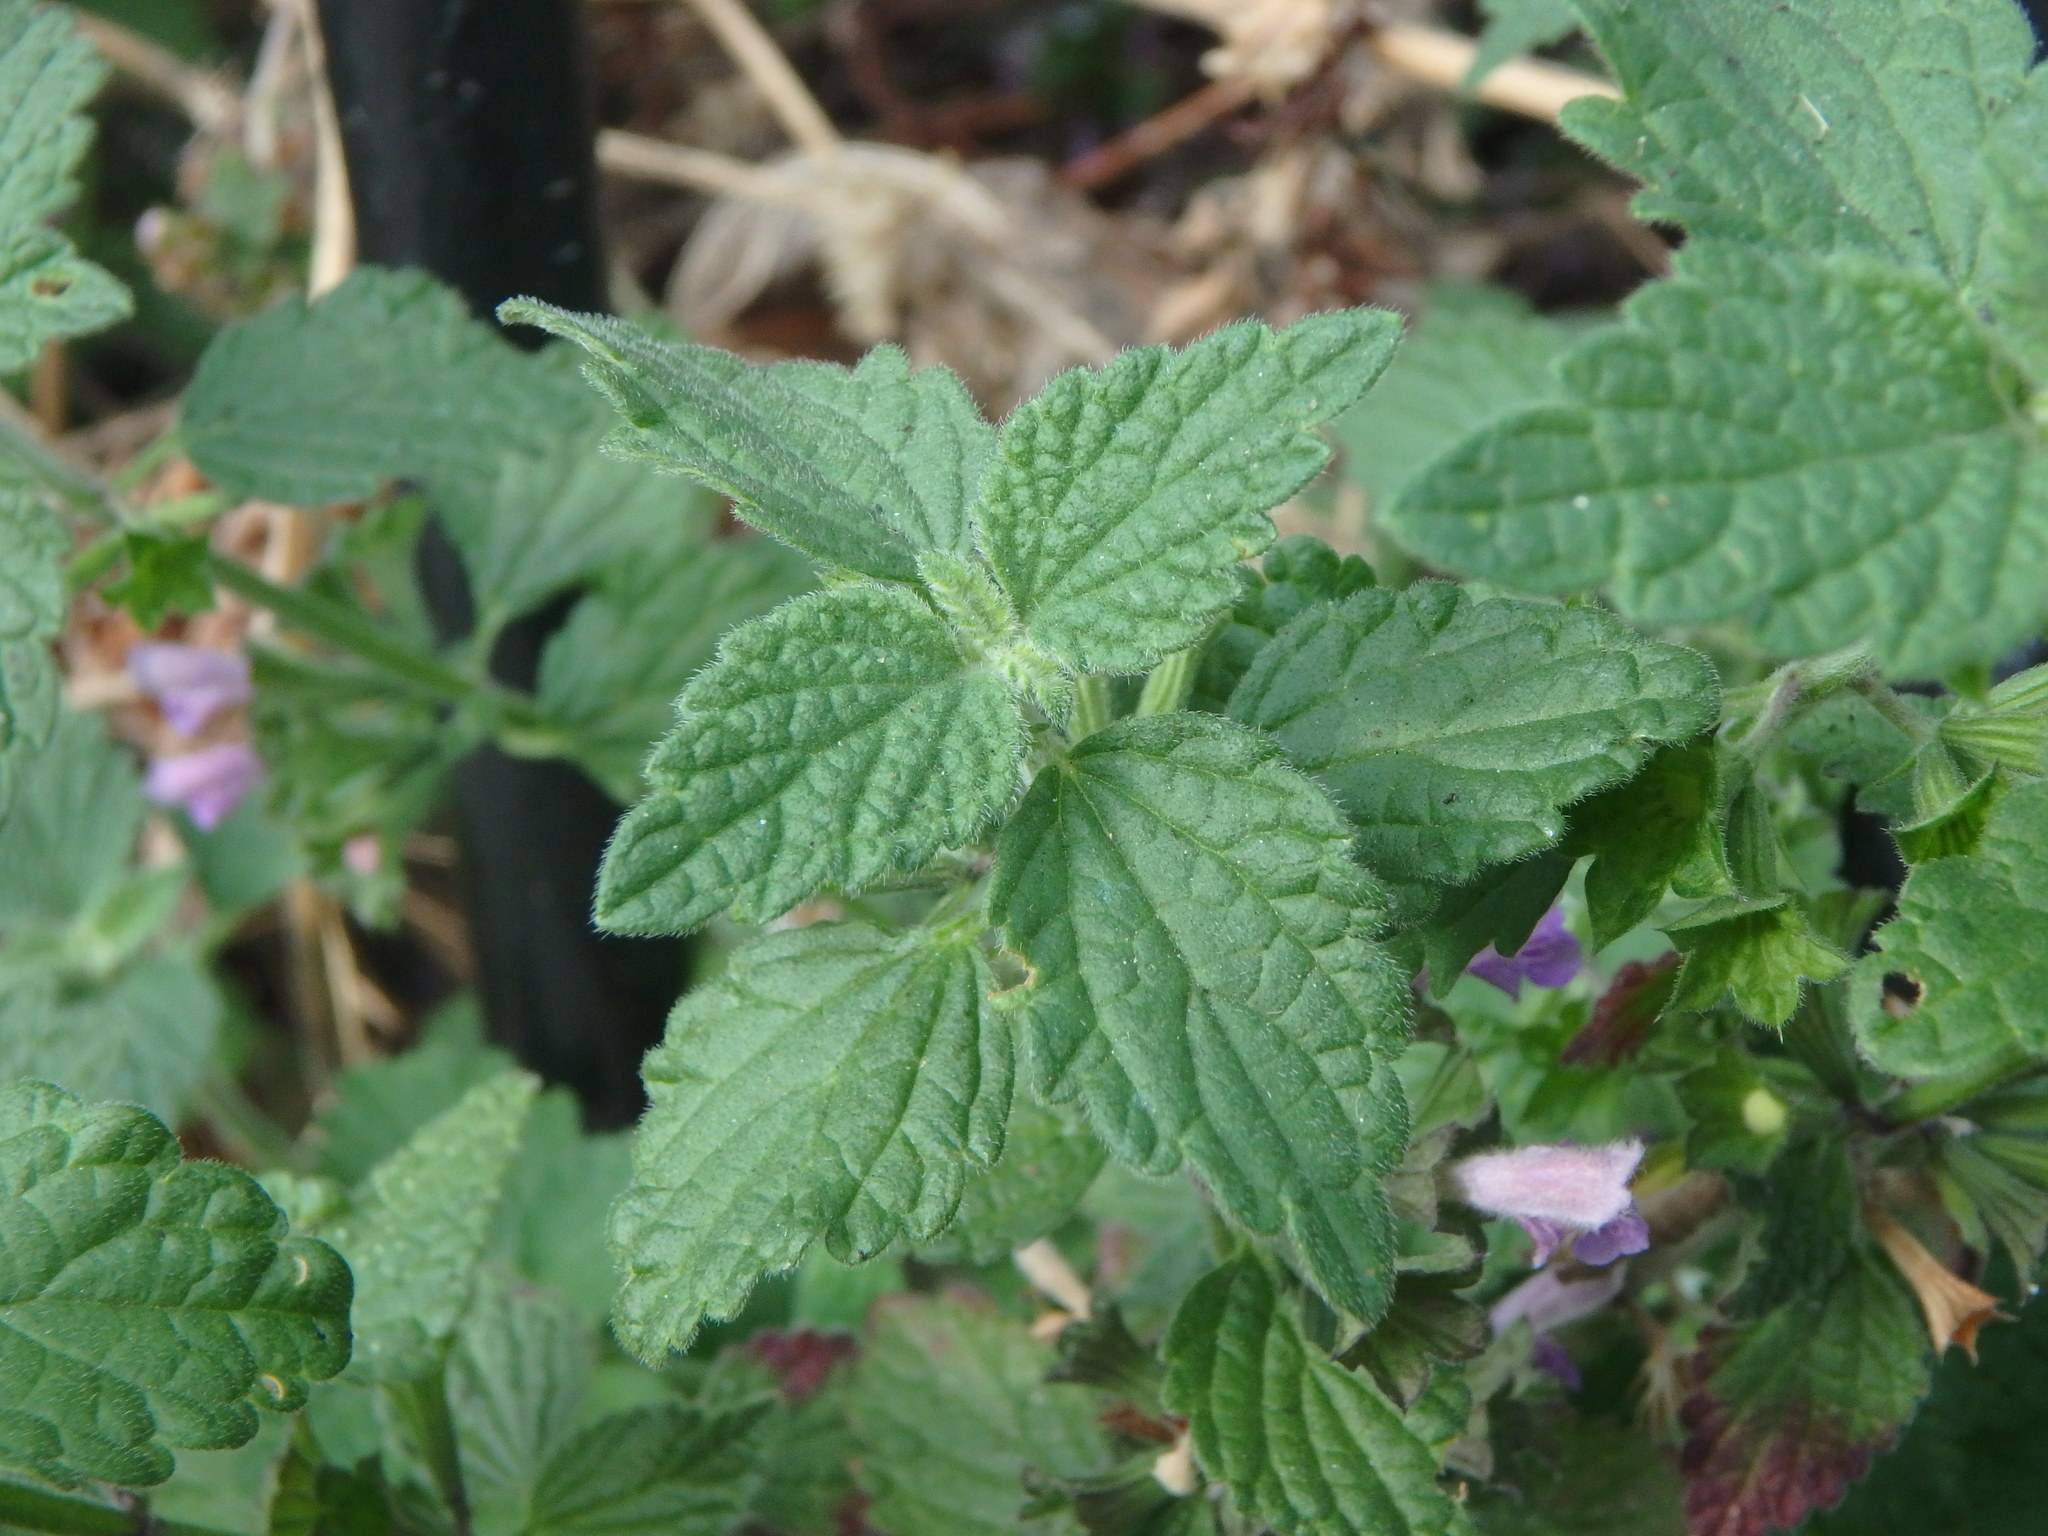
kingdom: Plantae
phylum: Tracheophyta
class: Magnoliopsida
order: Lamiales
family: Lamiaceae
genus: Ballota
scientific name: Ballota nigra
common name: Black horehound
